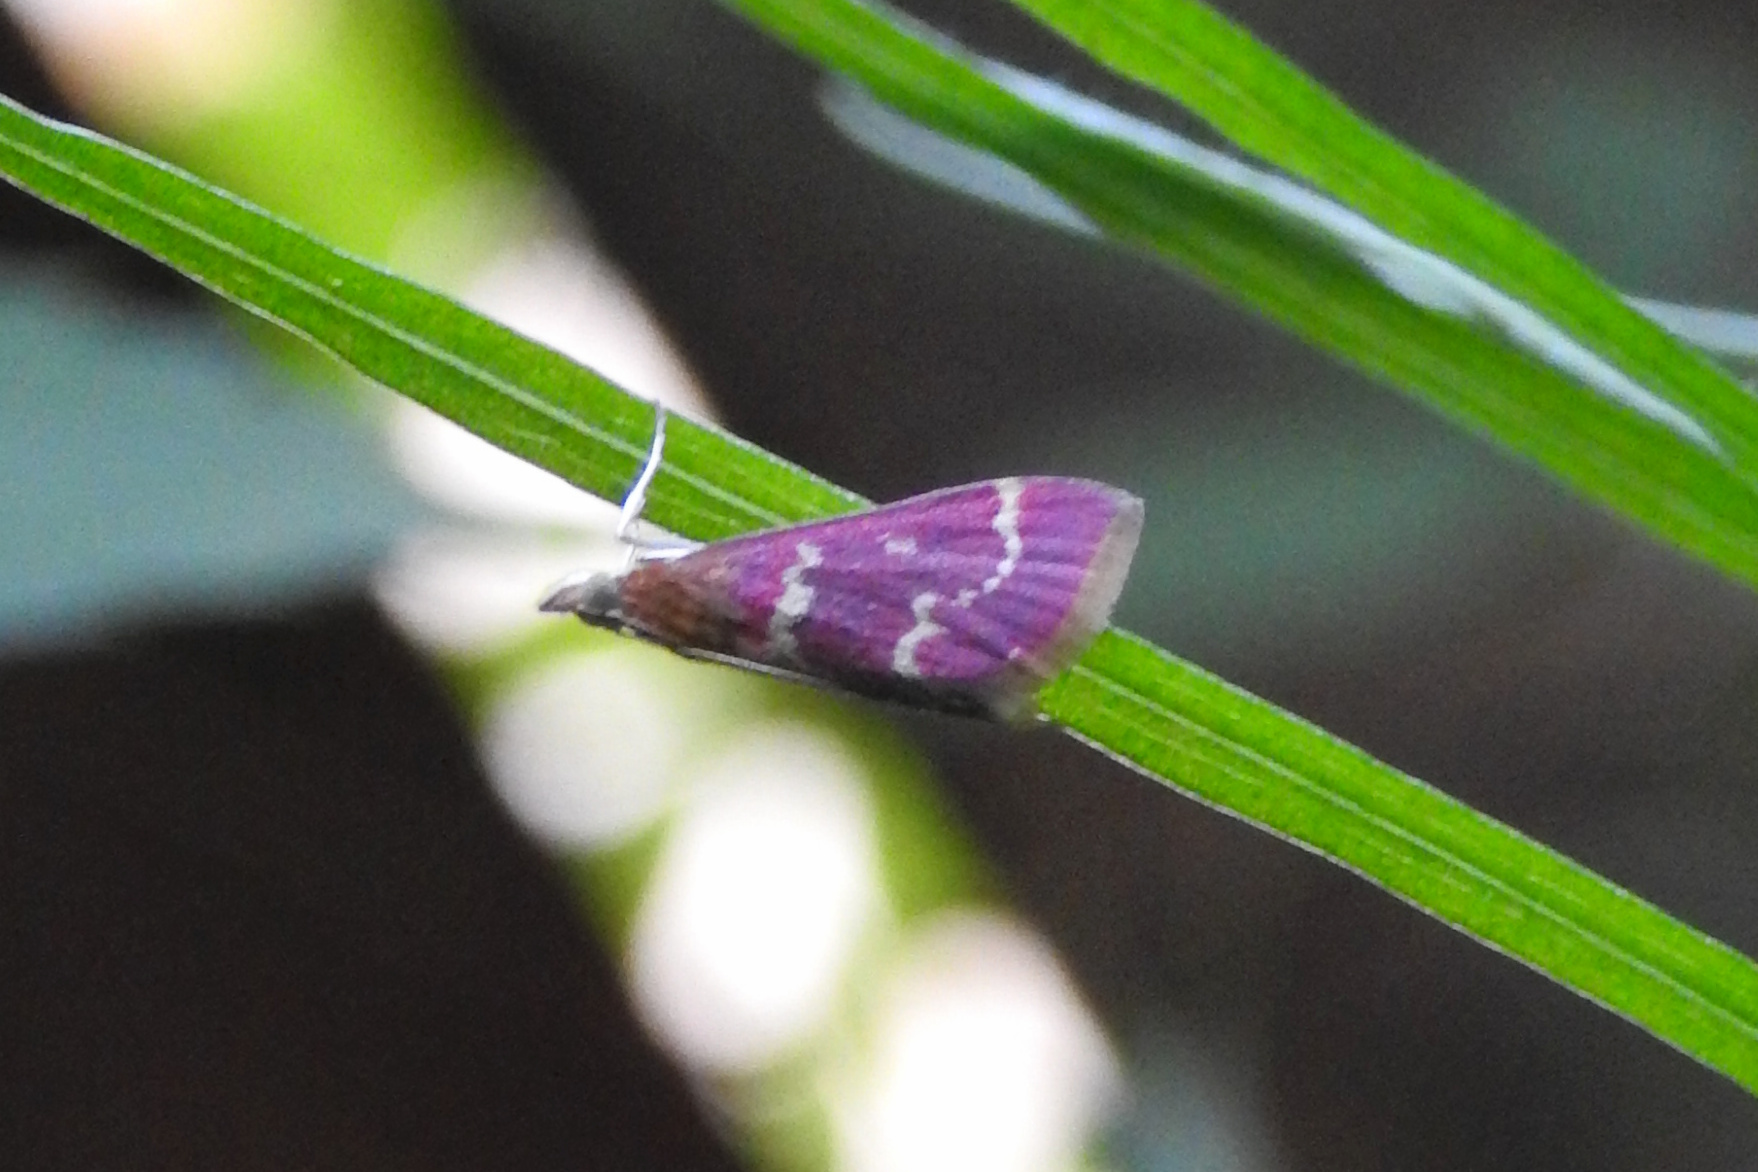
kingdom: Animalia
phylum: Arthropoda
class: Insecta
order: Lepidoptera
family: Crambidae
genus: Pyrausta
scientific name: Pyrausta signatalis
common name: Raspberry pyrausta moth
